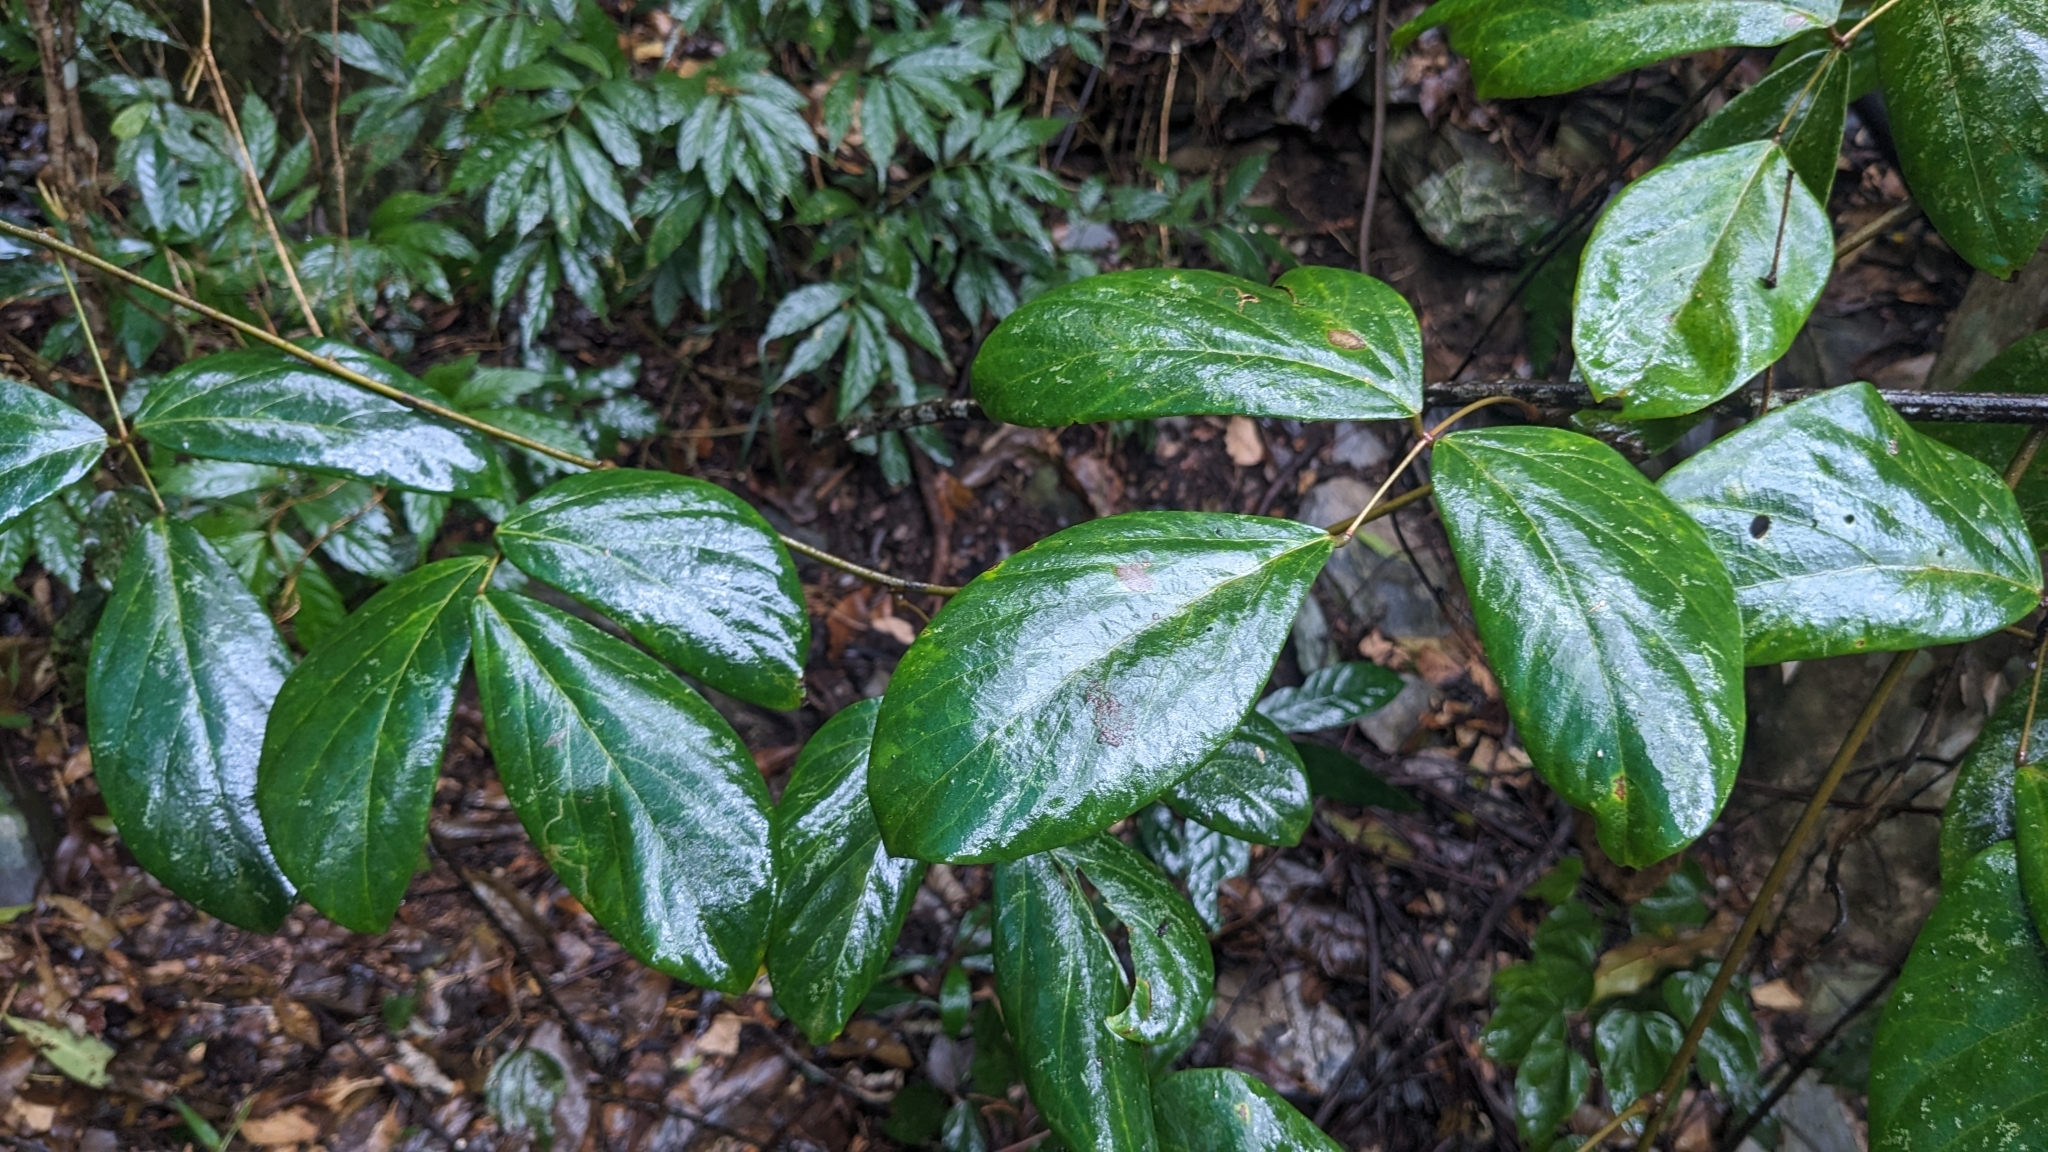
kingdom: Plantae
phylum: Tracheophyta
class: Magnoliopsida
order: Fabales
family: Fabaceae
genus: Mucuna
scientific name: Mucuna macrocarpa
